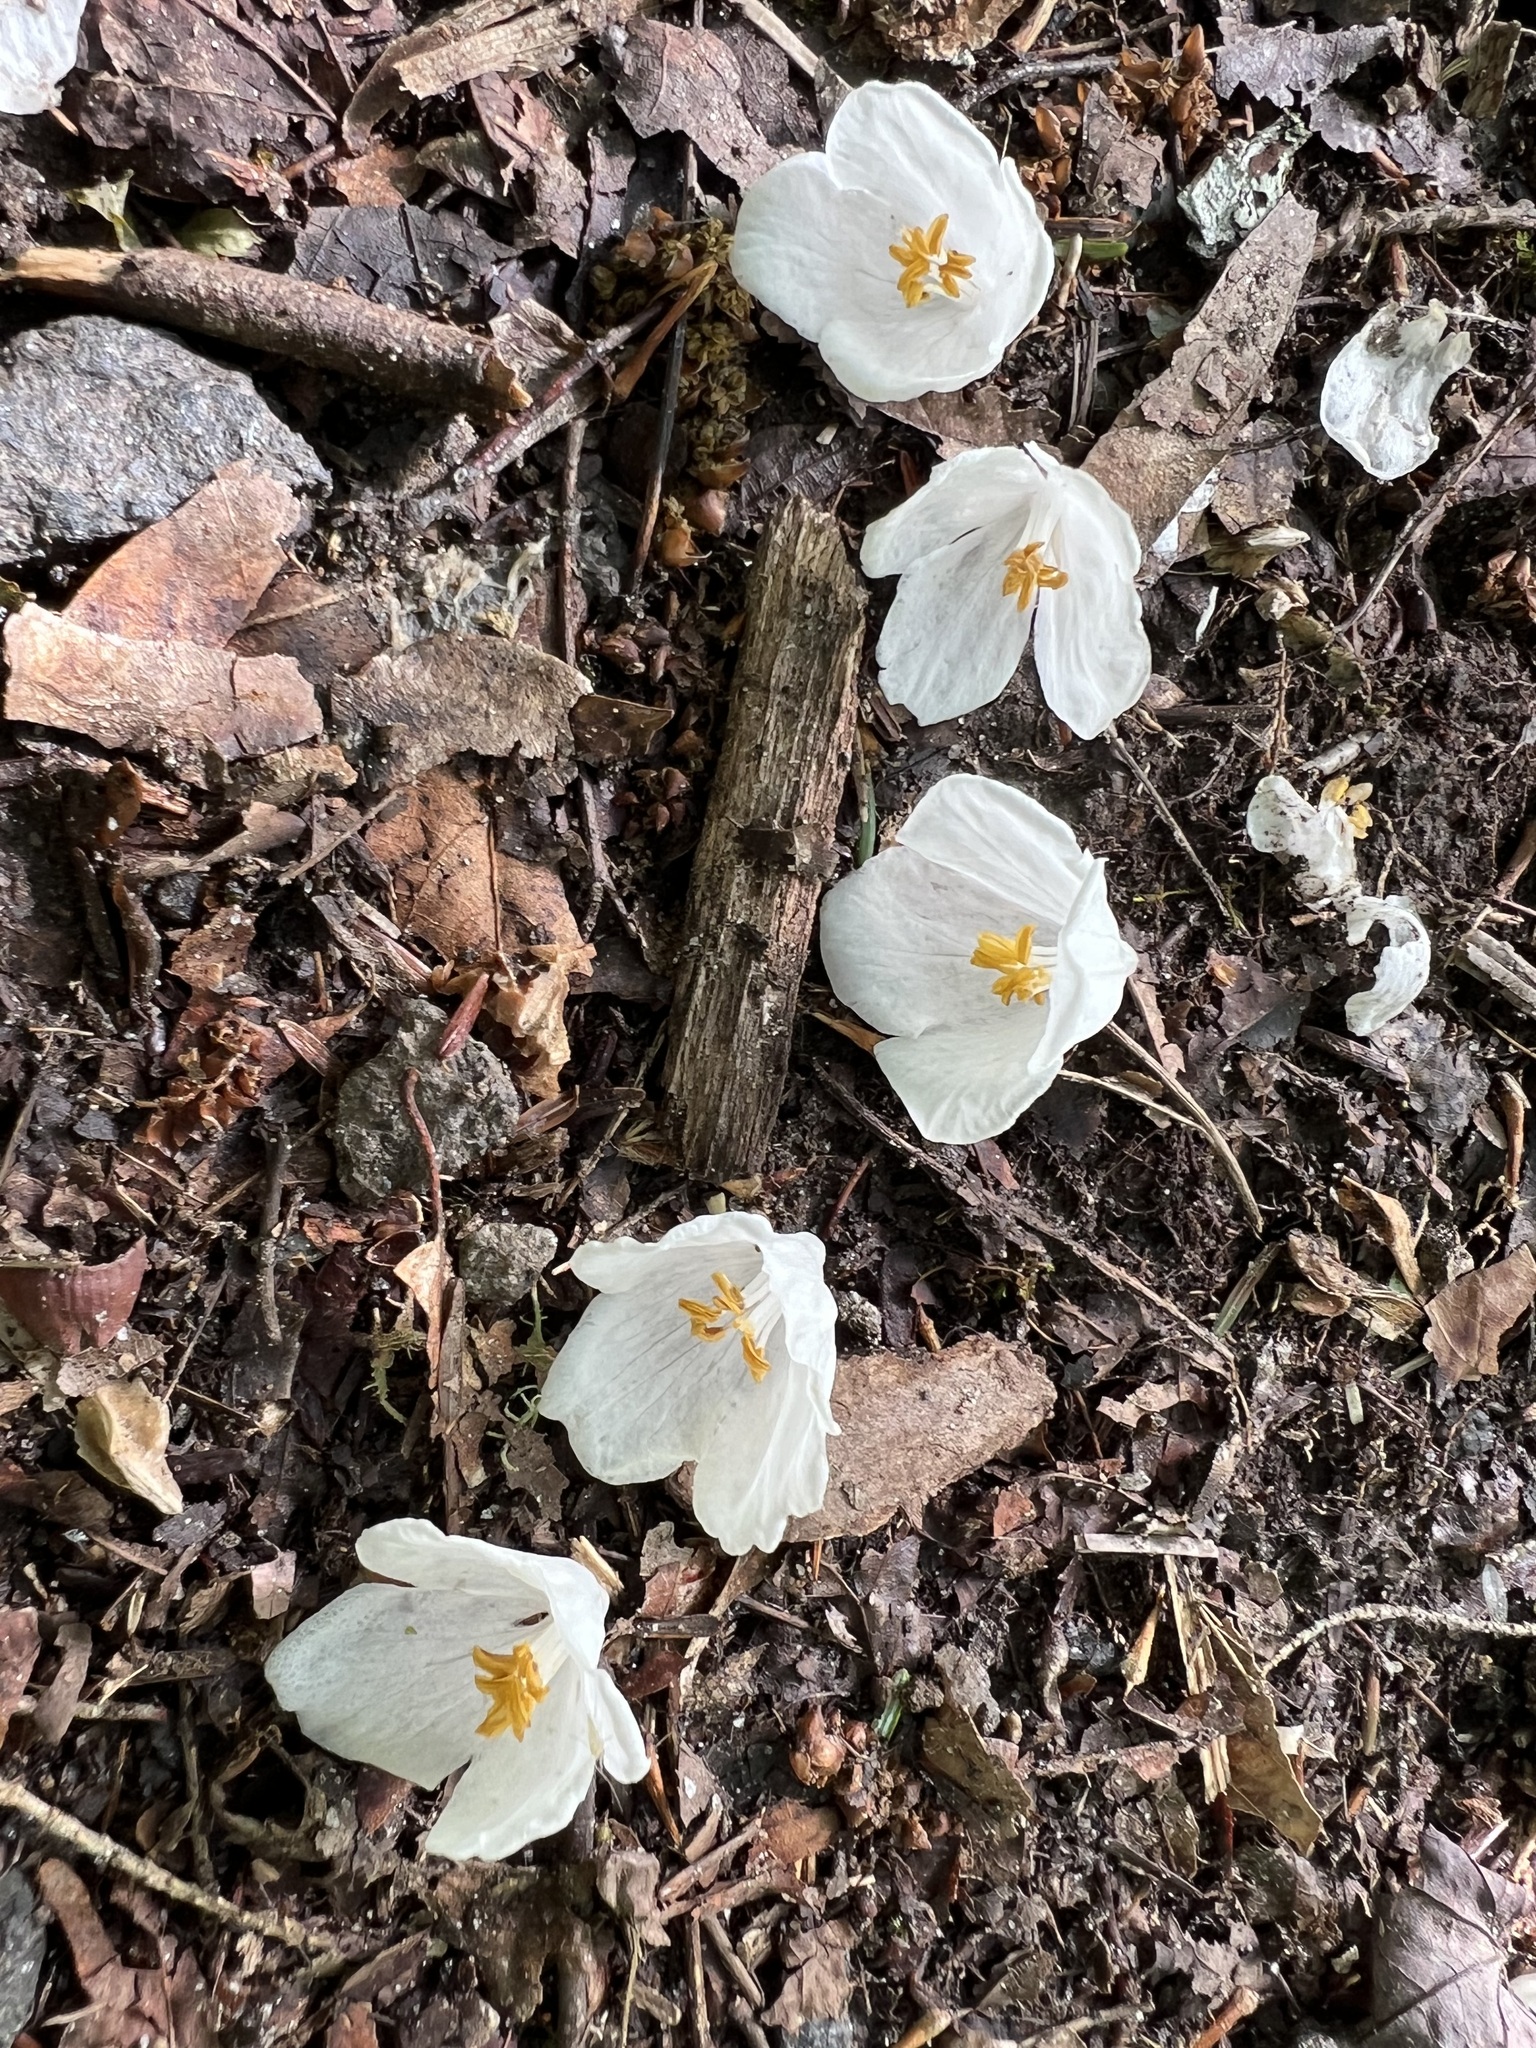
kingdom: Plantae
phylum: Tracheophyta
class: Magnoliopsida
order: Ericales
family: Styracaceae
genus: Halesia
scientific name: Halesia tetraptera
